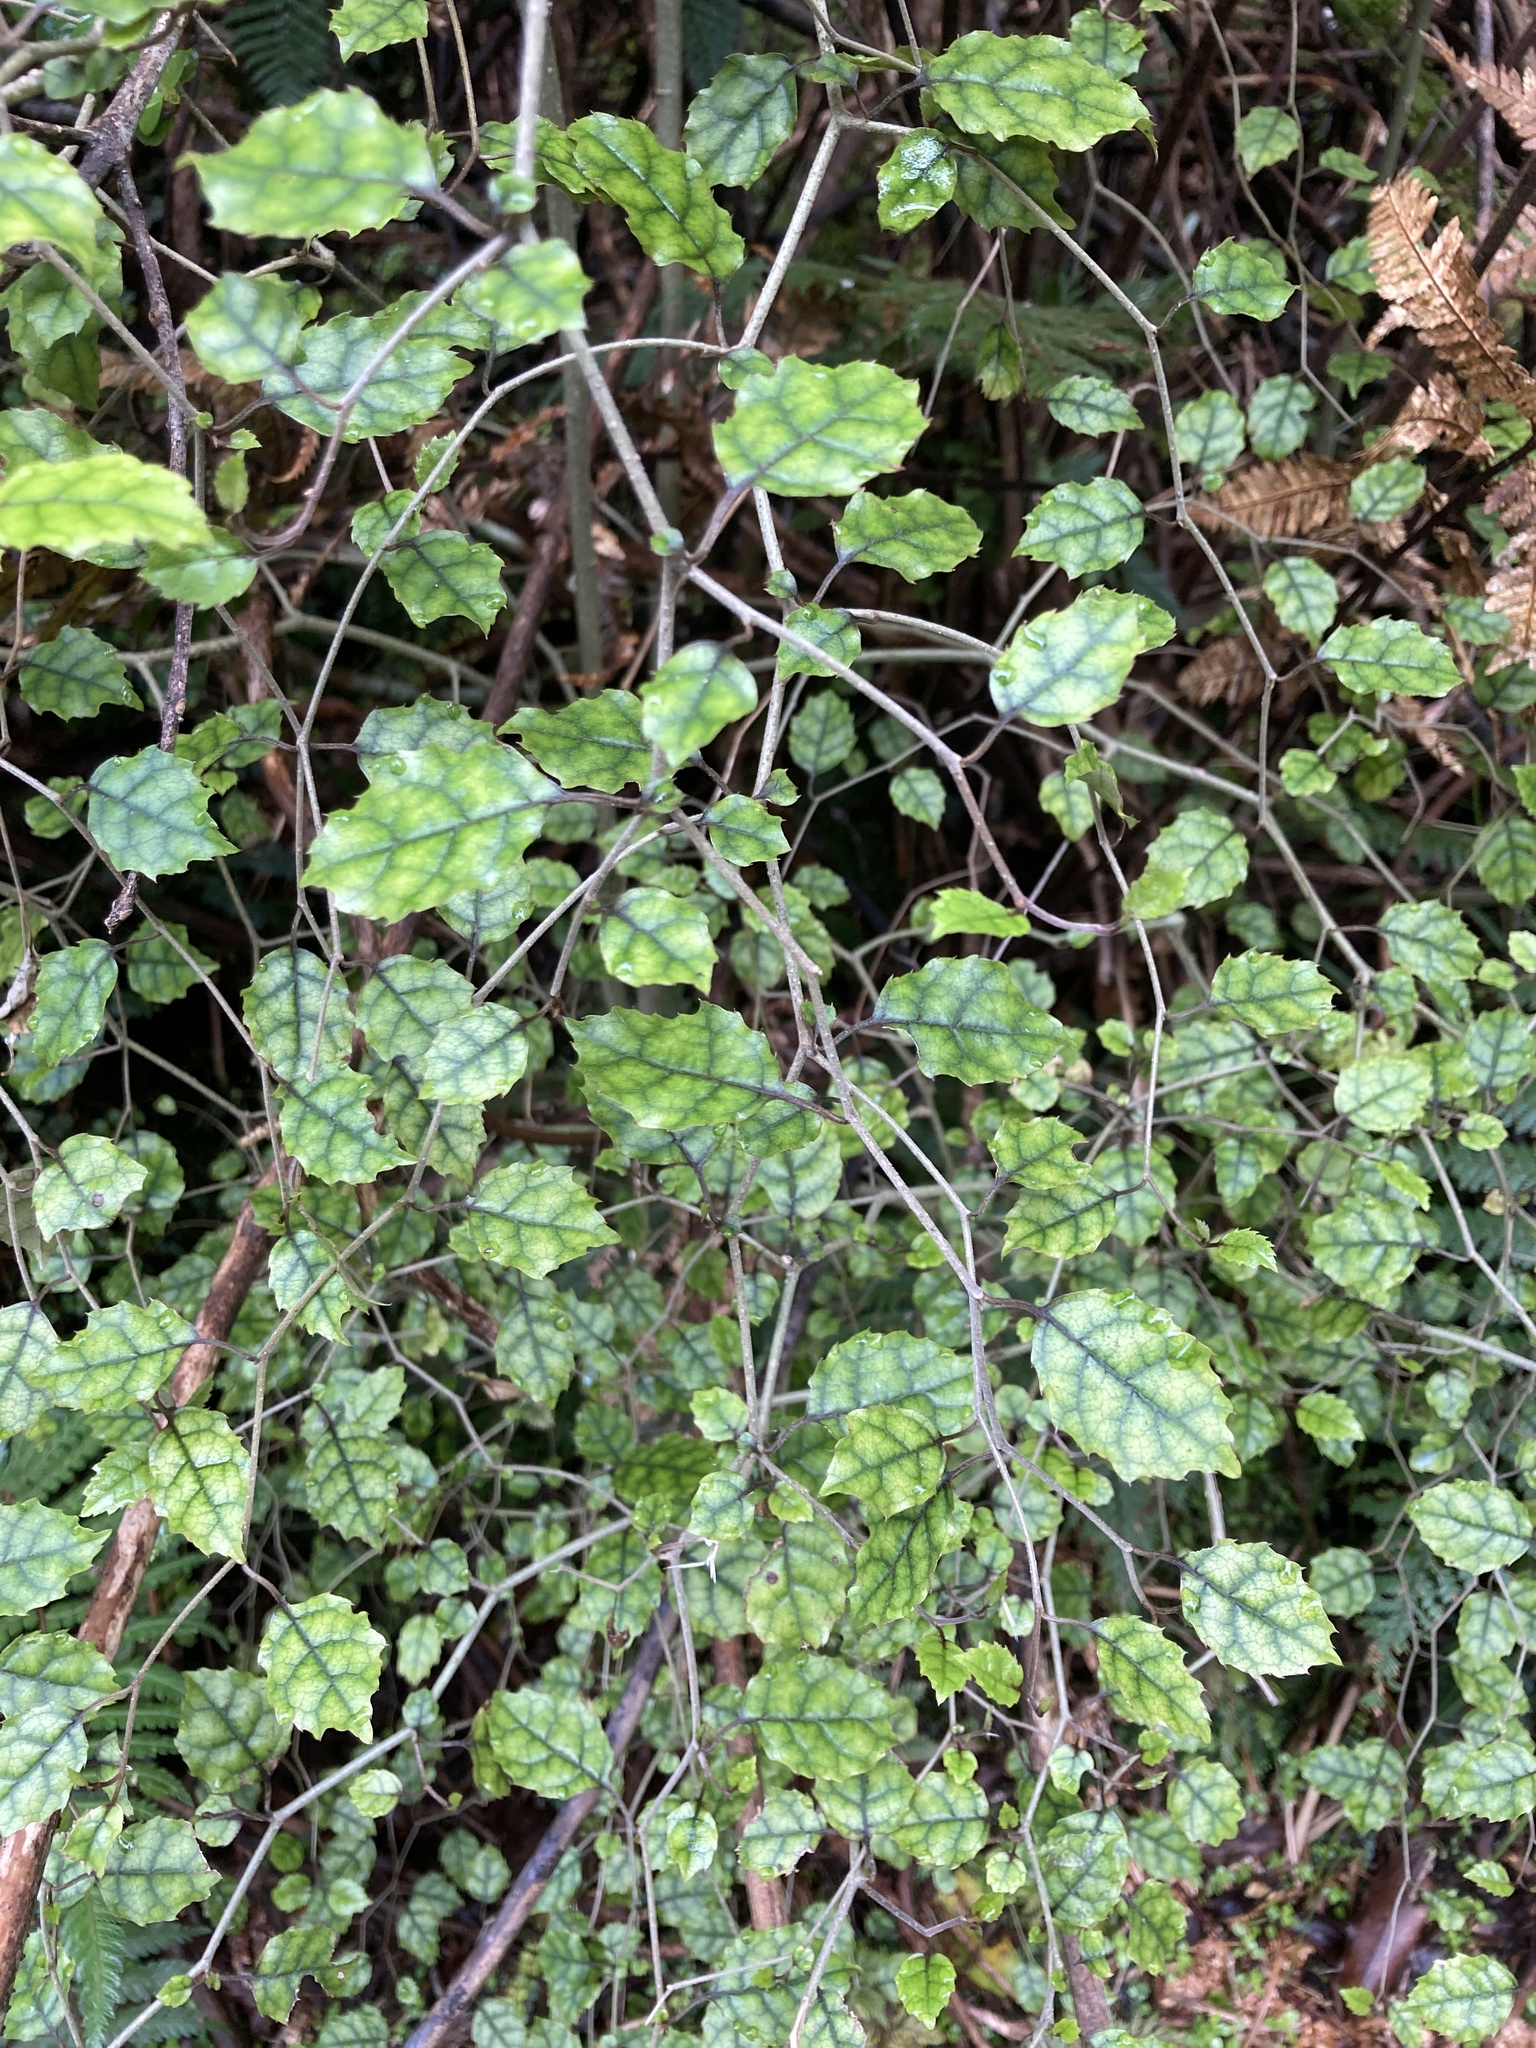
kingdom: Plantae
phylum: Tracheophyta
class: Magnoliopsida
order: Asterales
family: Rousseaceae
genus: Carpodetus
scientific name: Carpodetus serratus
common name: White mapau
